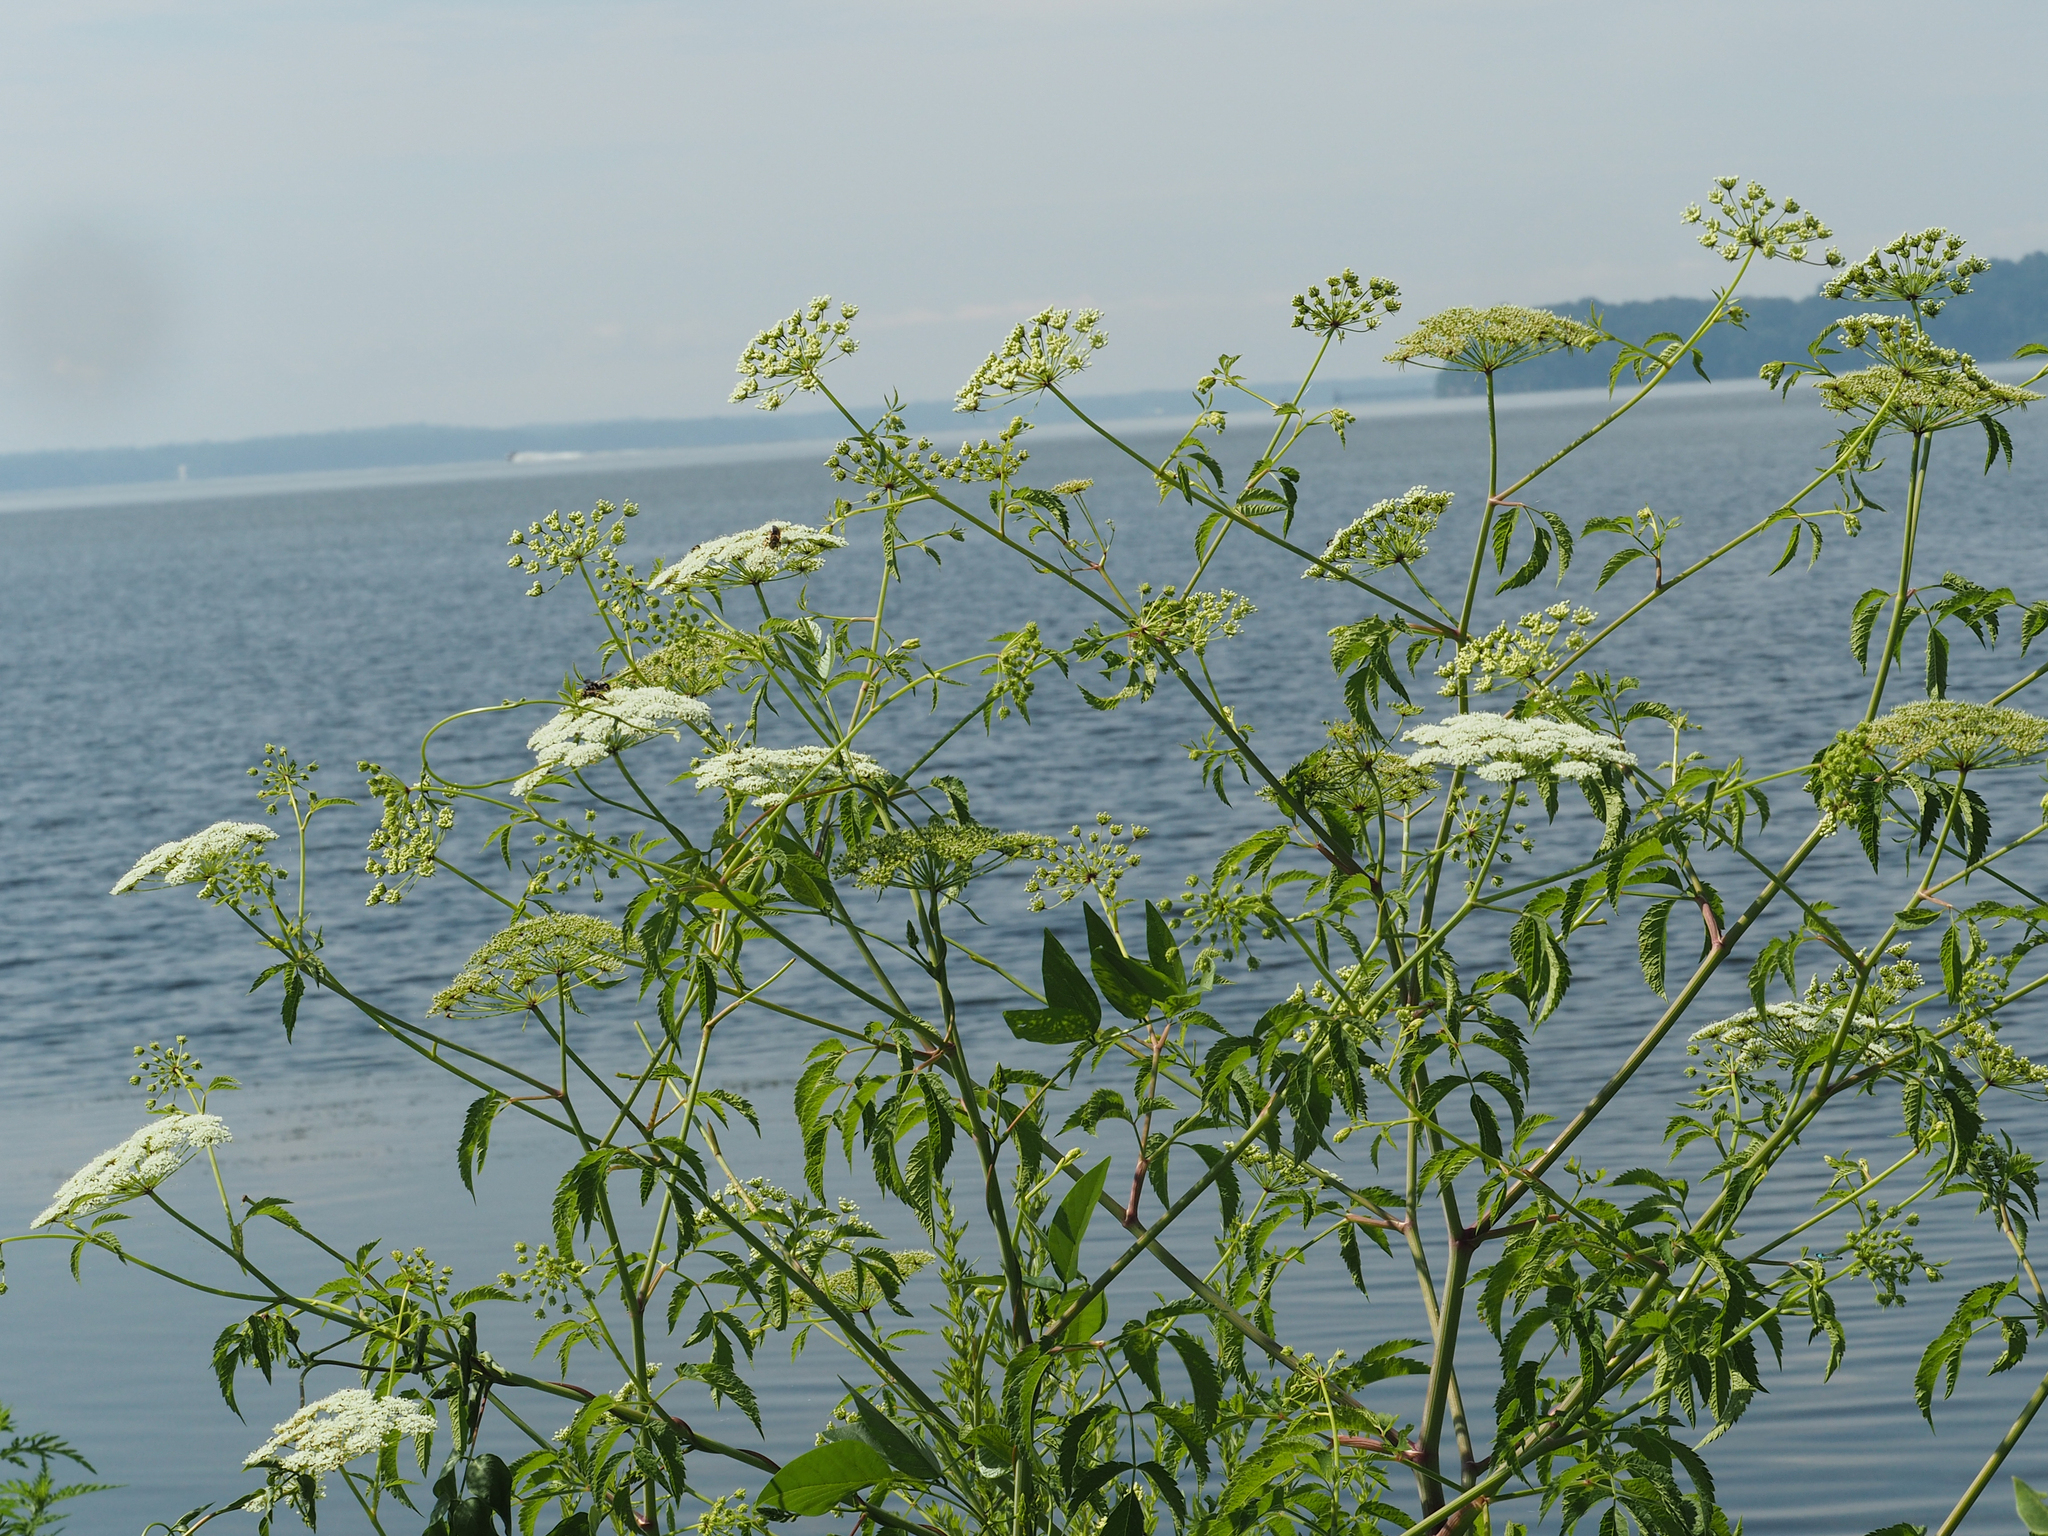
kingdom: Plantae
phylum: Tracheophyta
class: Magnoliopsida
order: Apiales
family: Apiaceae
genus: Cicuta
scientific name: Cicuta maculata
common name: Spotted cowbane
